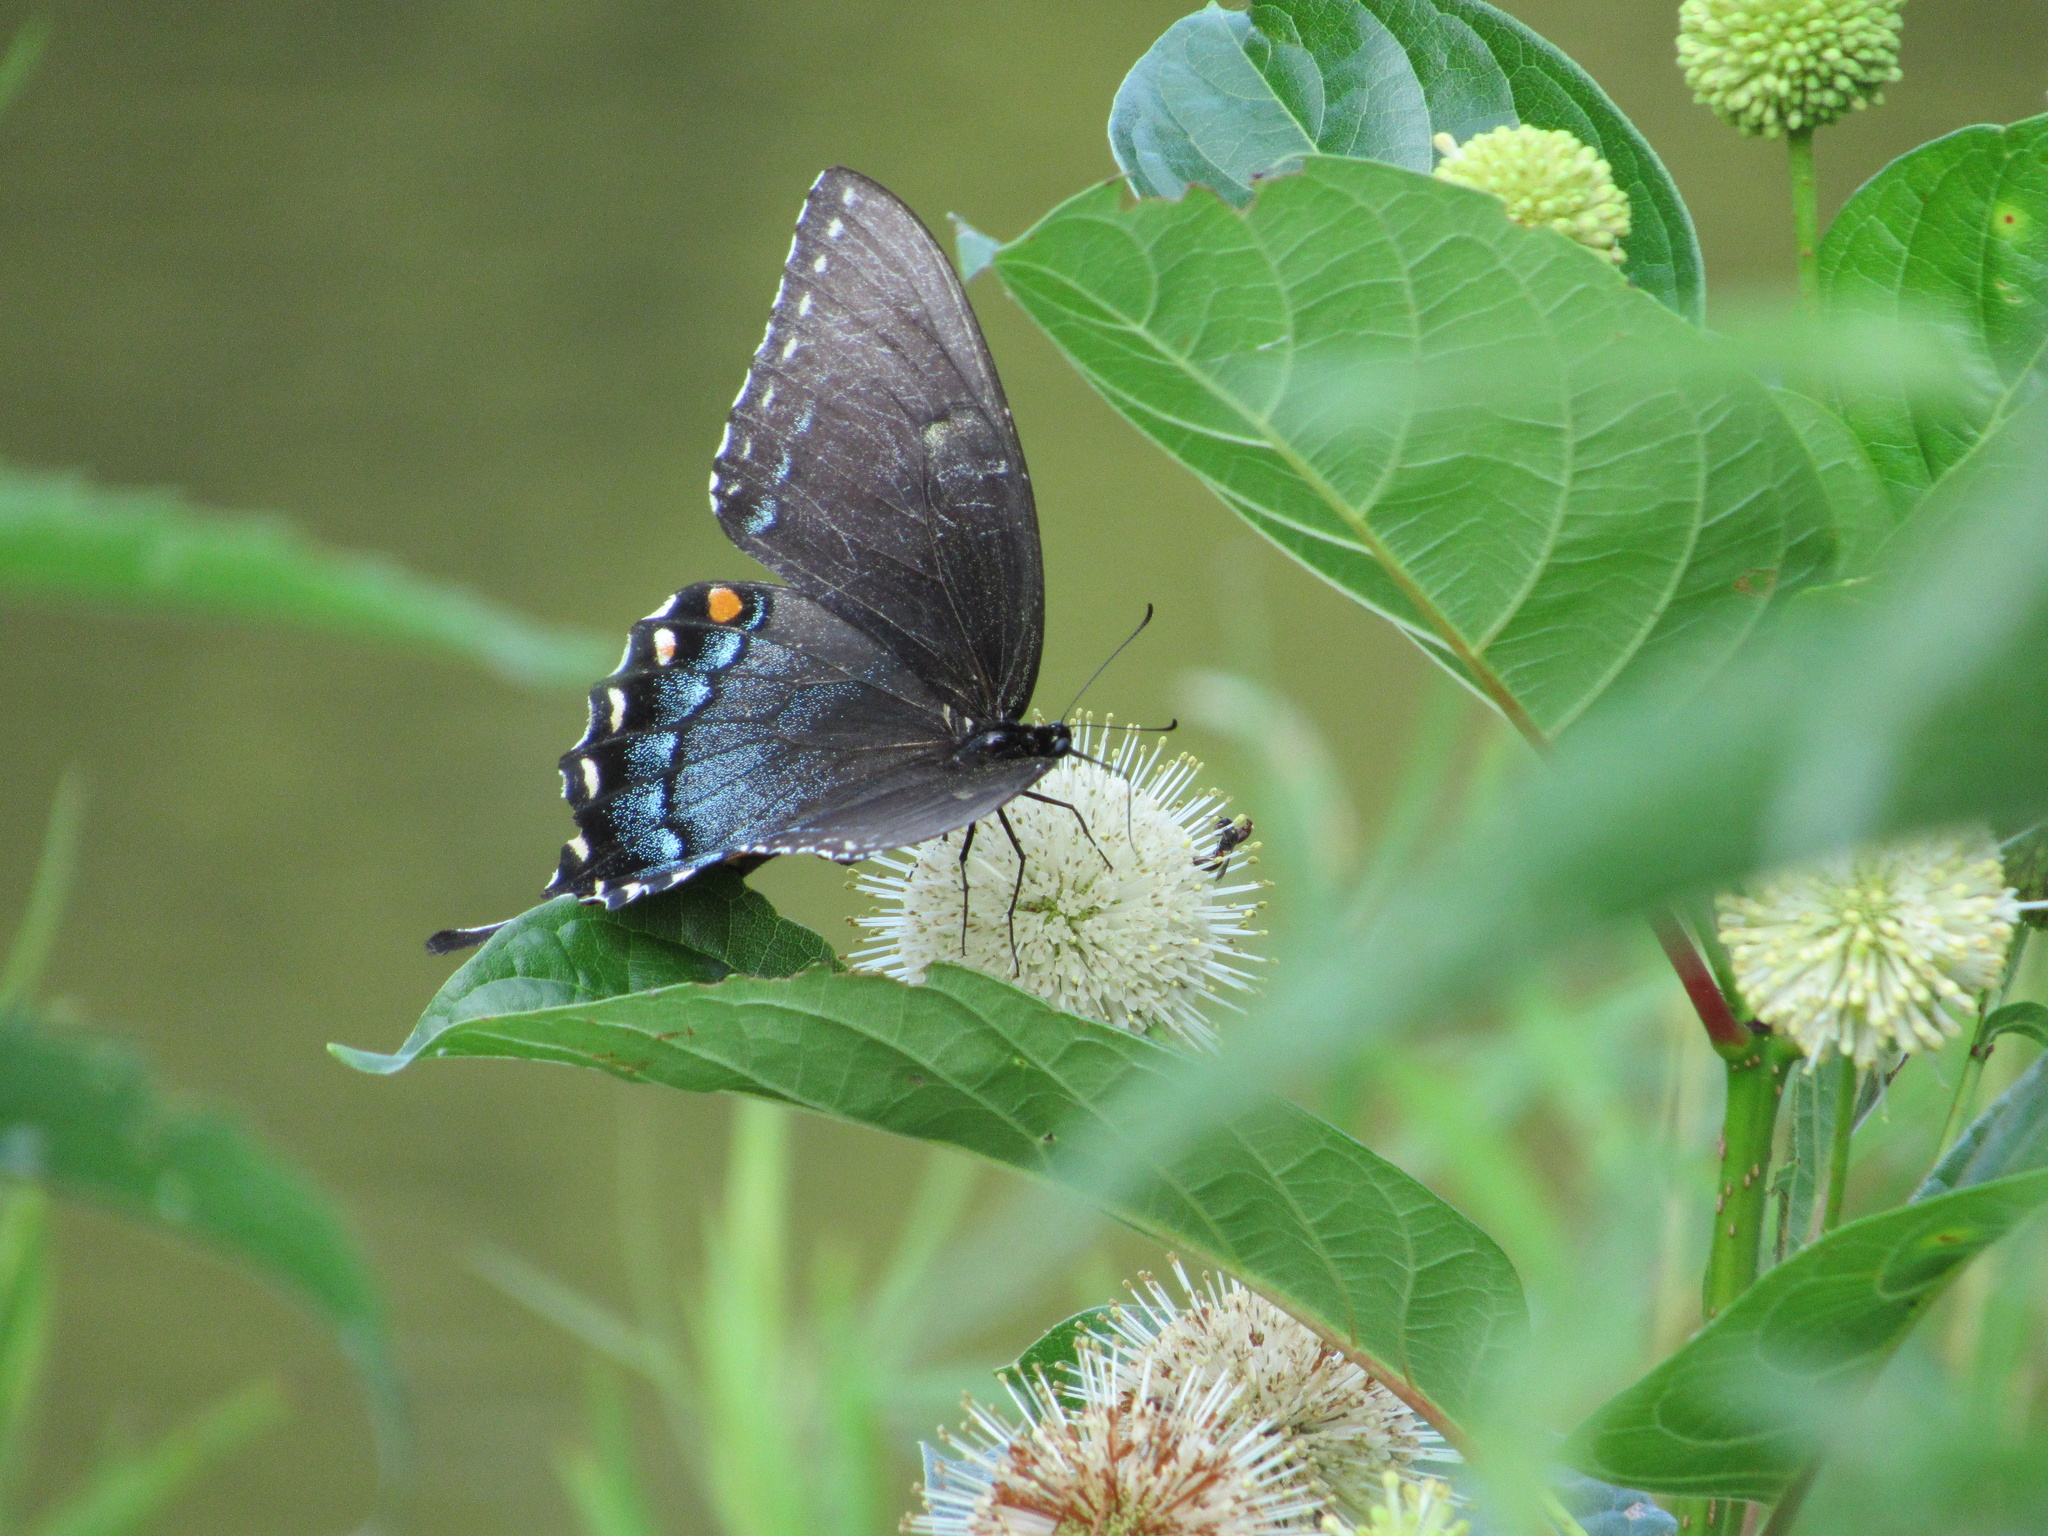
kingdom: Animalia
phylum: Arthropoda
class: Insecta
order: Lepidoptera
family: Papilionidae
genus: Papilio
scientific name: Papilio glaucus
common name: Tiger swallowtail
